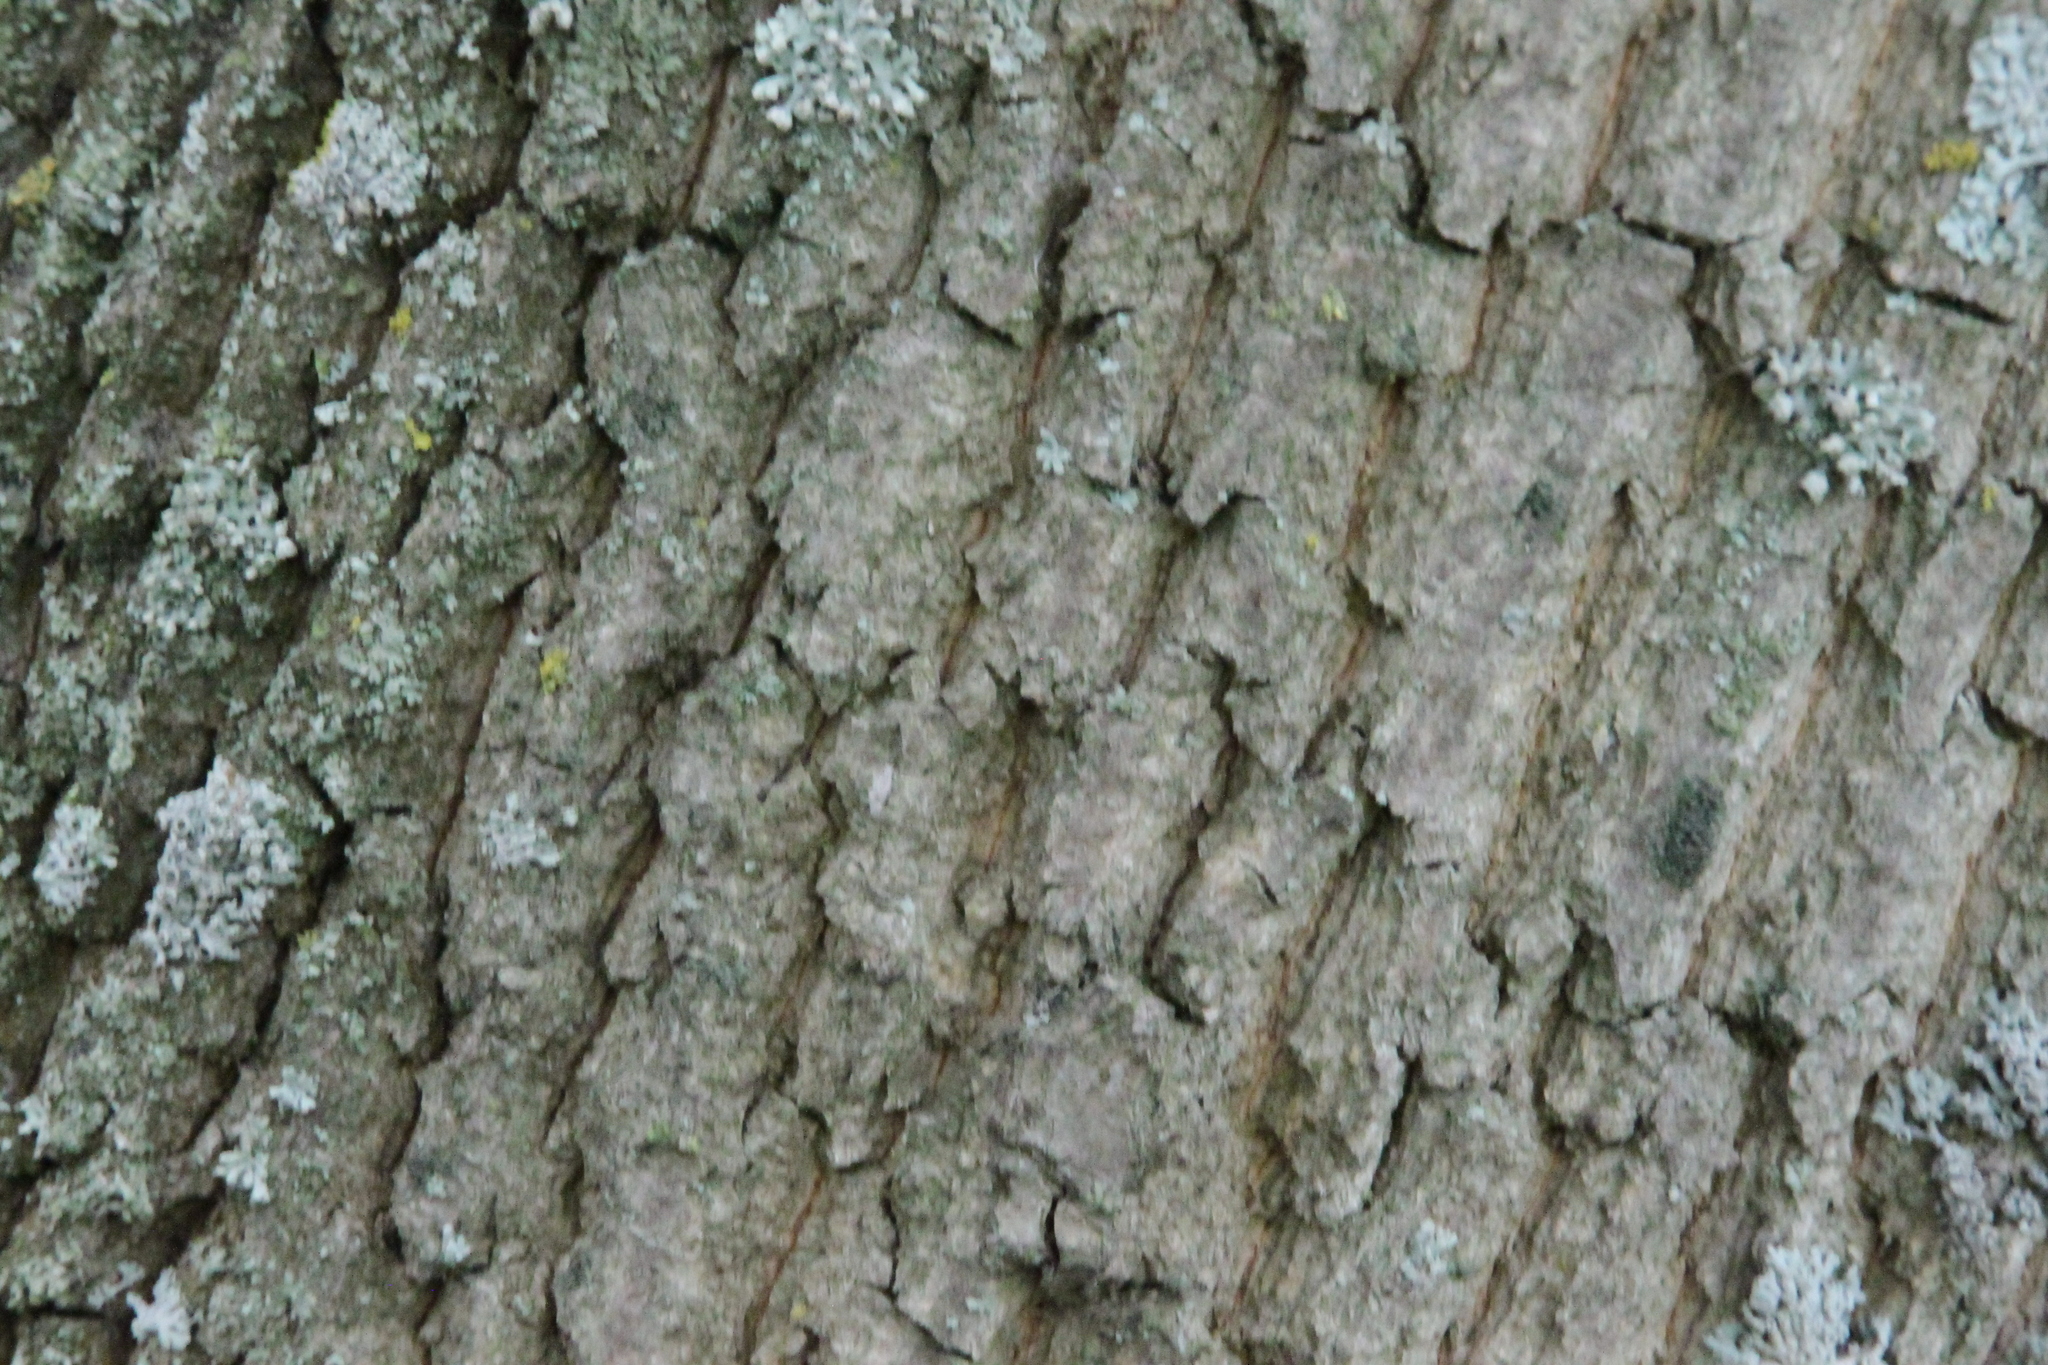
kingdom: Plantae
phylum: Tracheophyta
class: Magnoliopsida
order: Sapindales
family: Sapindaceae
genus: Acer
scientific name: Acer platanoides
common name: Norway maple
